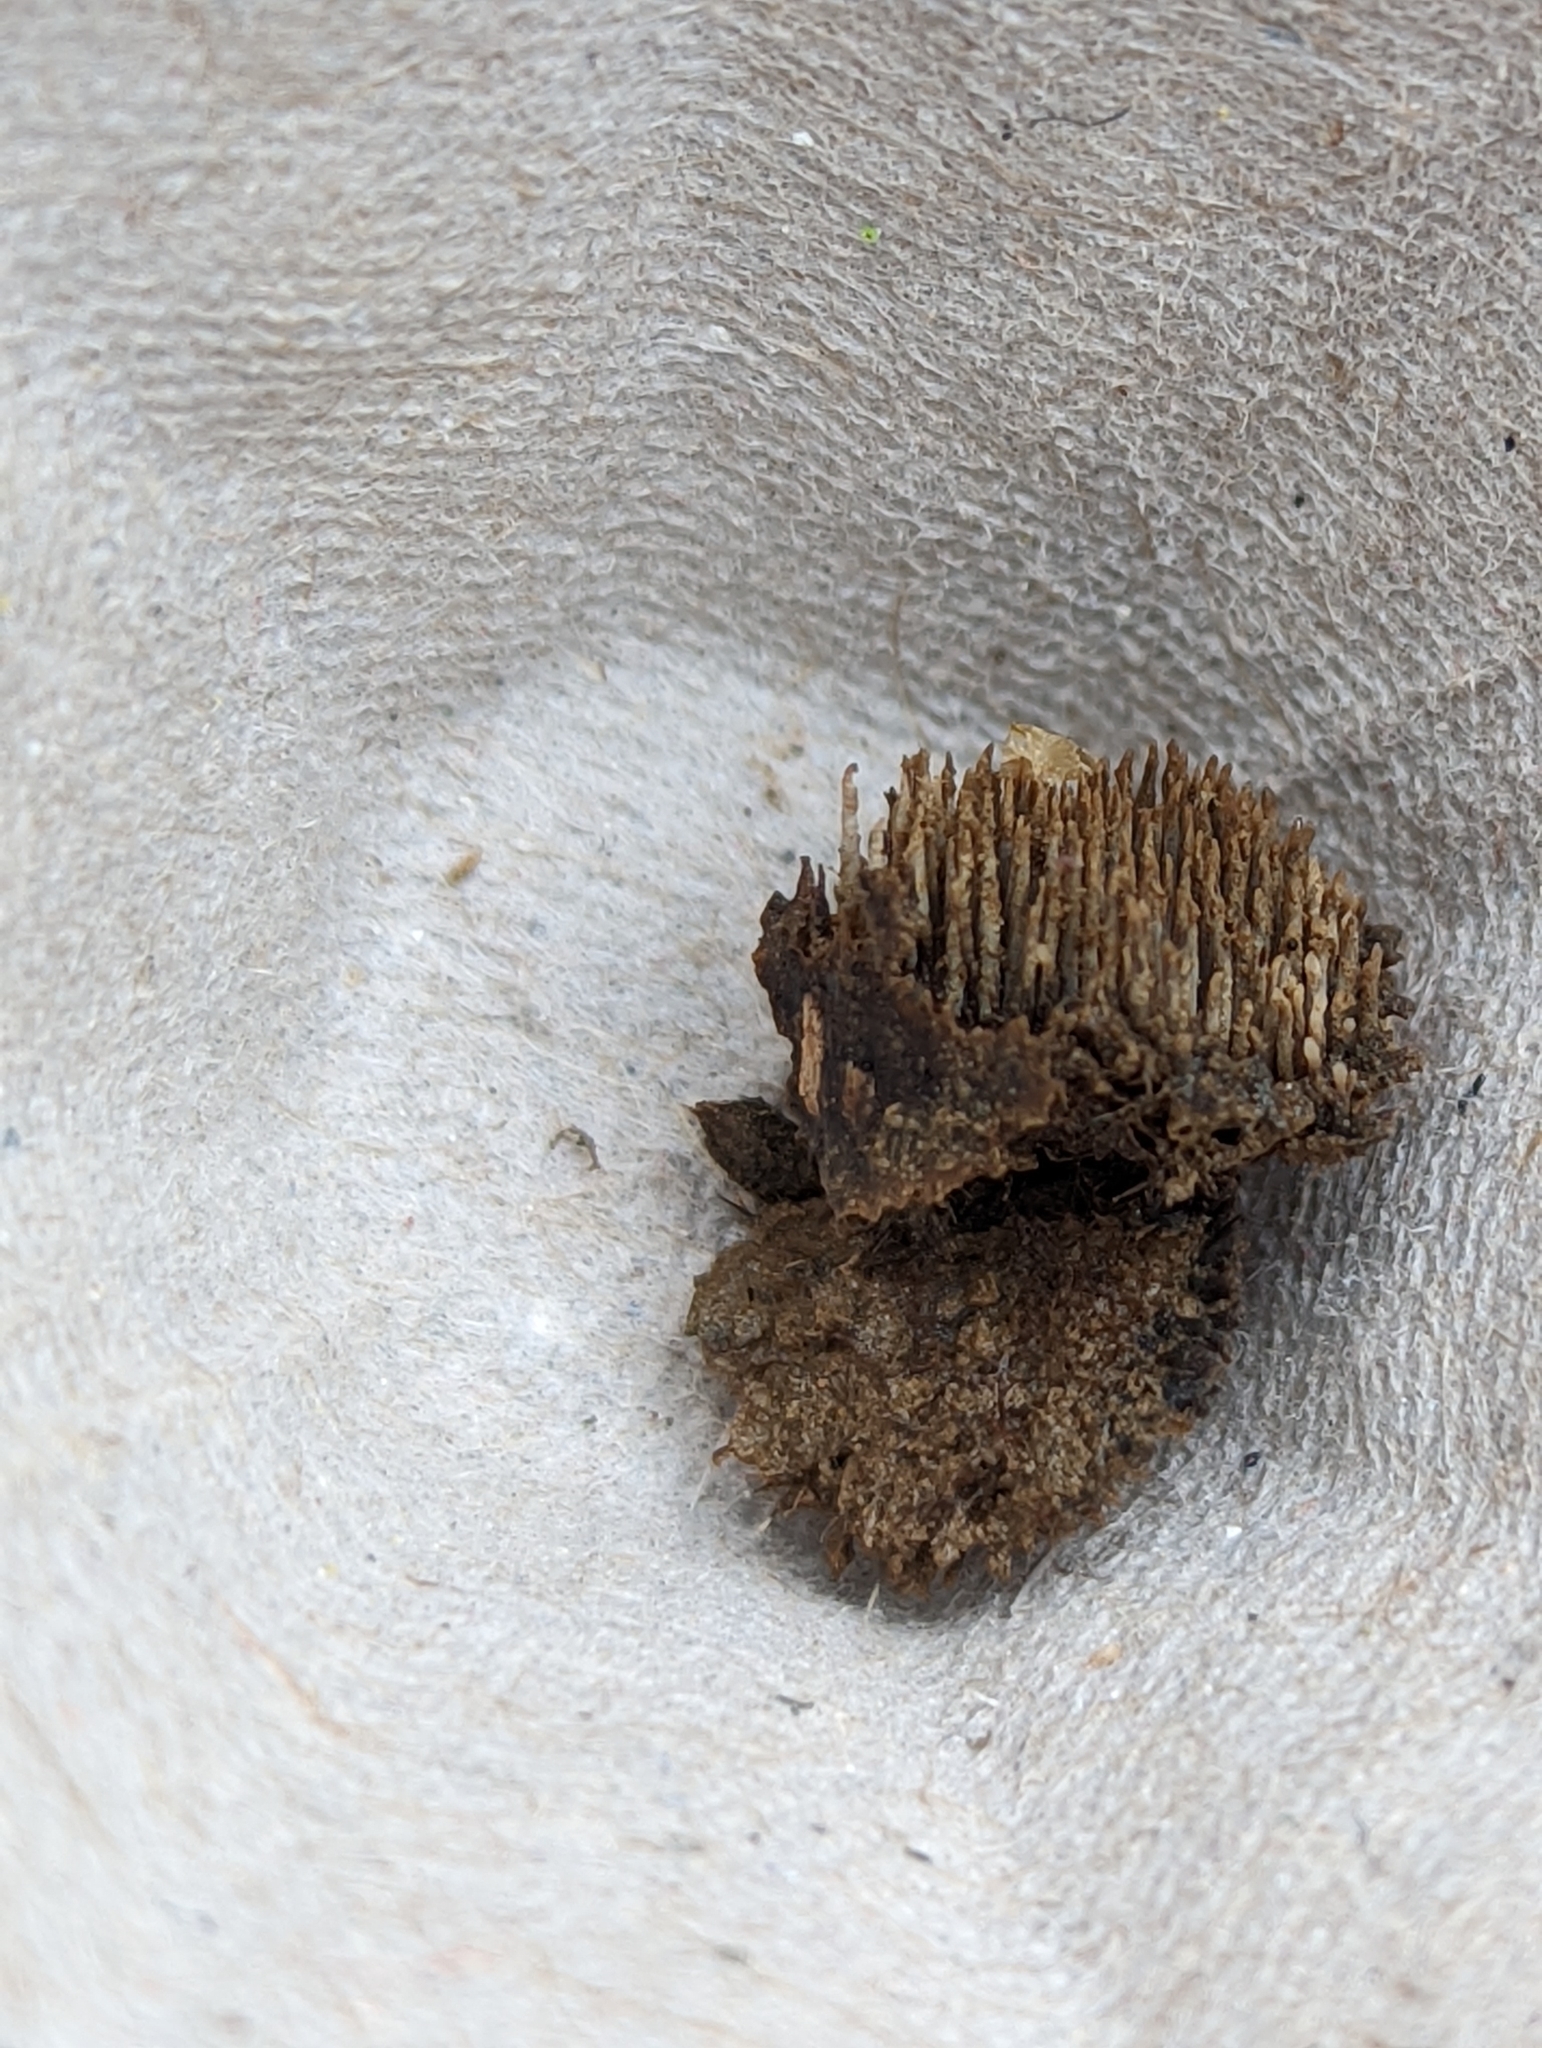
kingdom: Fungi
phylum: Basidiomycota
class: Agaricomycetes
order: Russulales
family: Bondarzewiaceae
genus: Gloiodon
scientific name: Gloiodon strigosus
